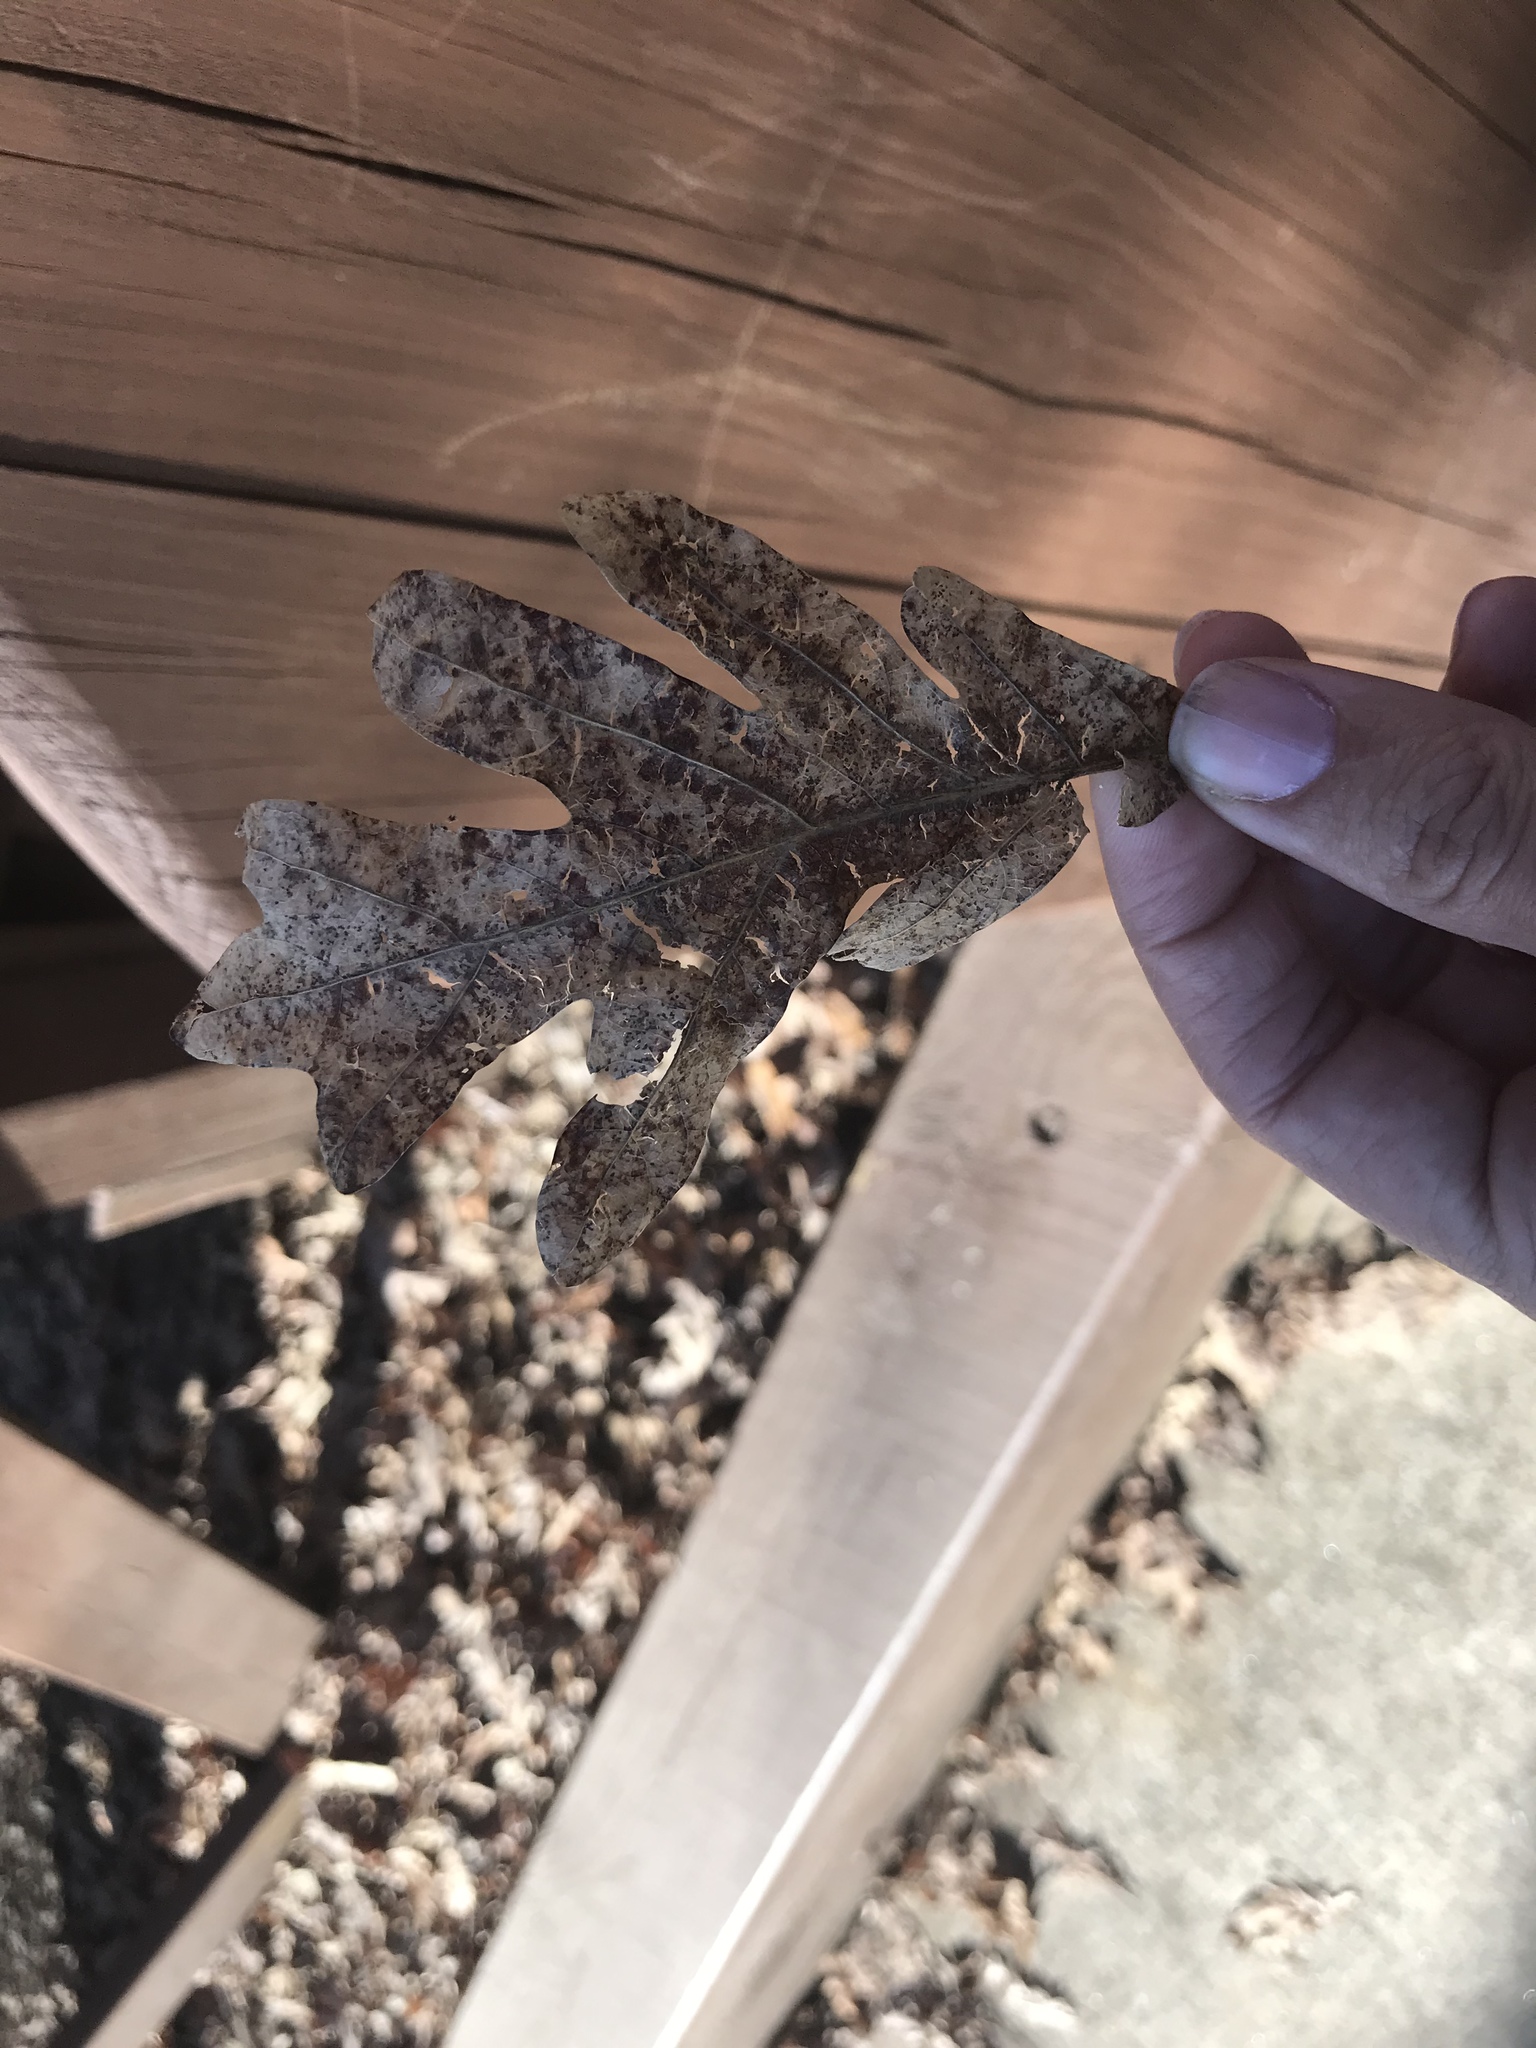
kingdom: Plantae
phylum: Tracheophyta
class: Magnoliopsida
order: Fagales
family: Fagaceae
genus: Quercus
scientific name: Quercus alba
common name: White oak
